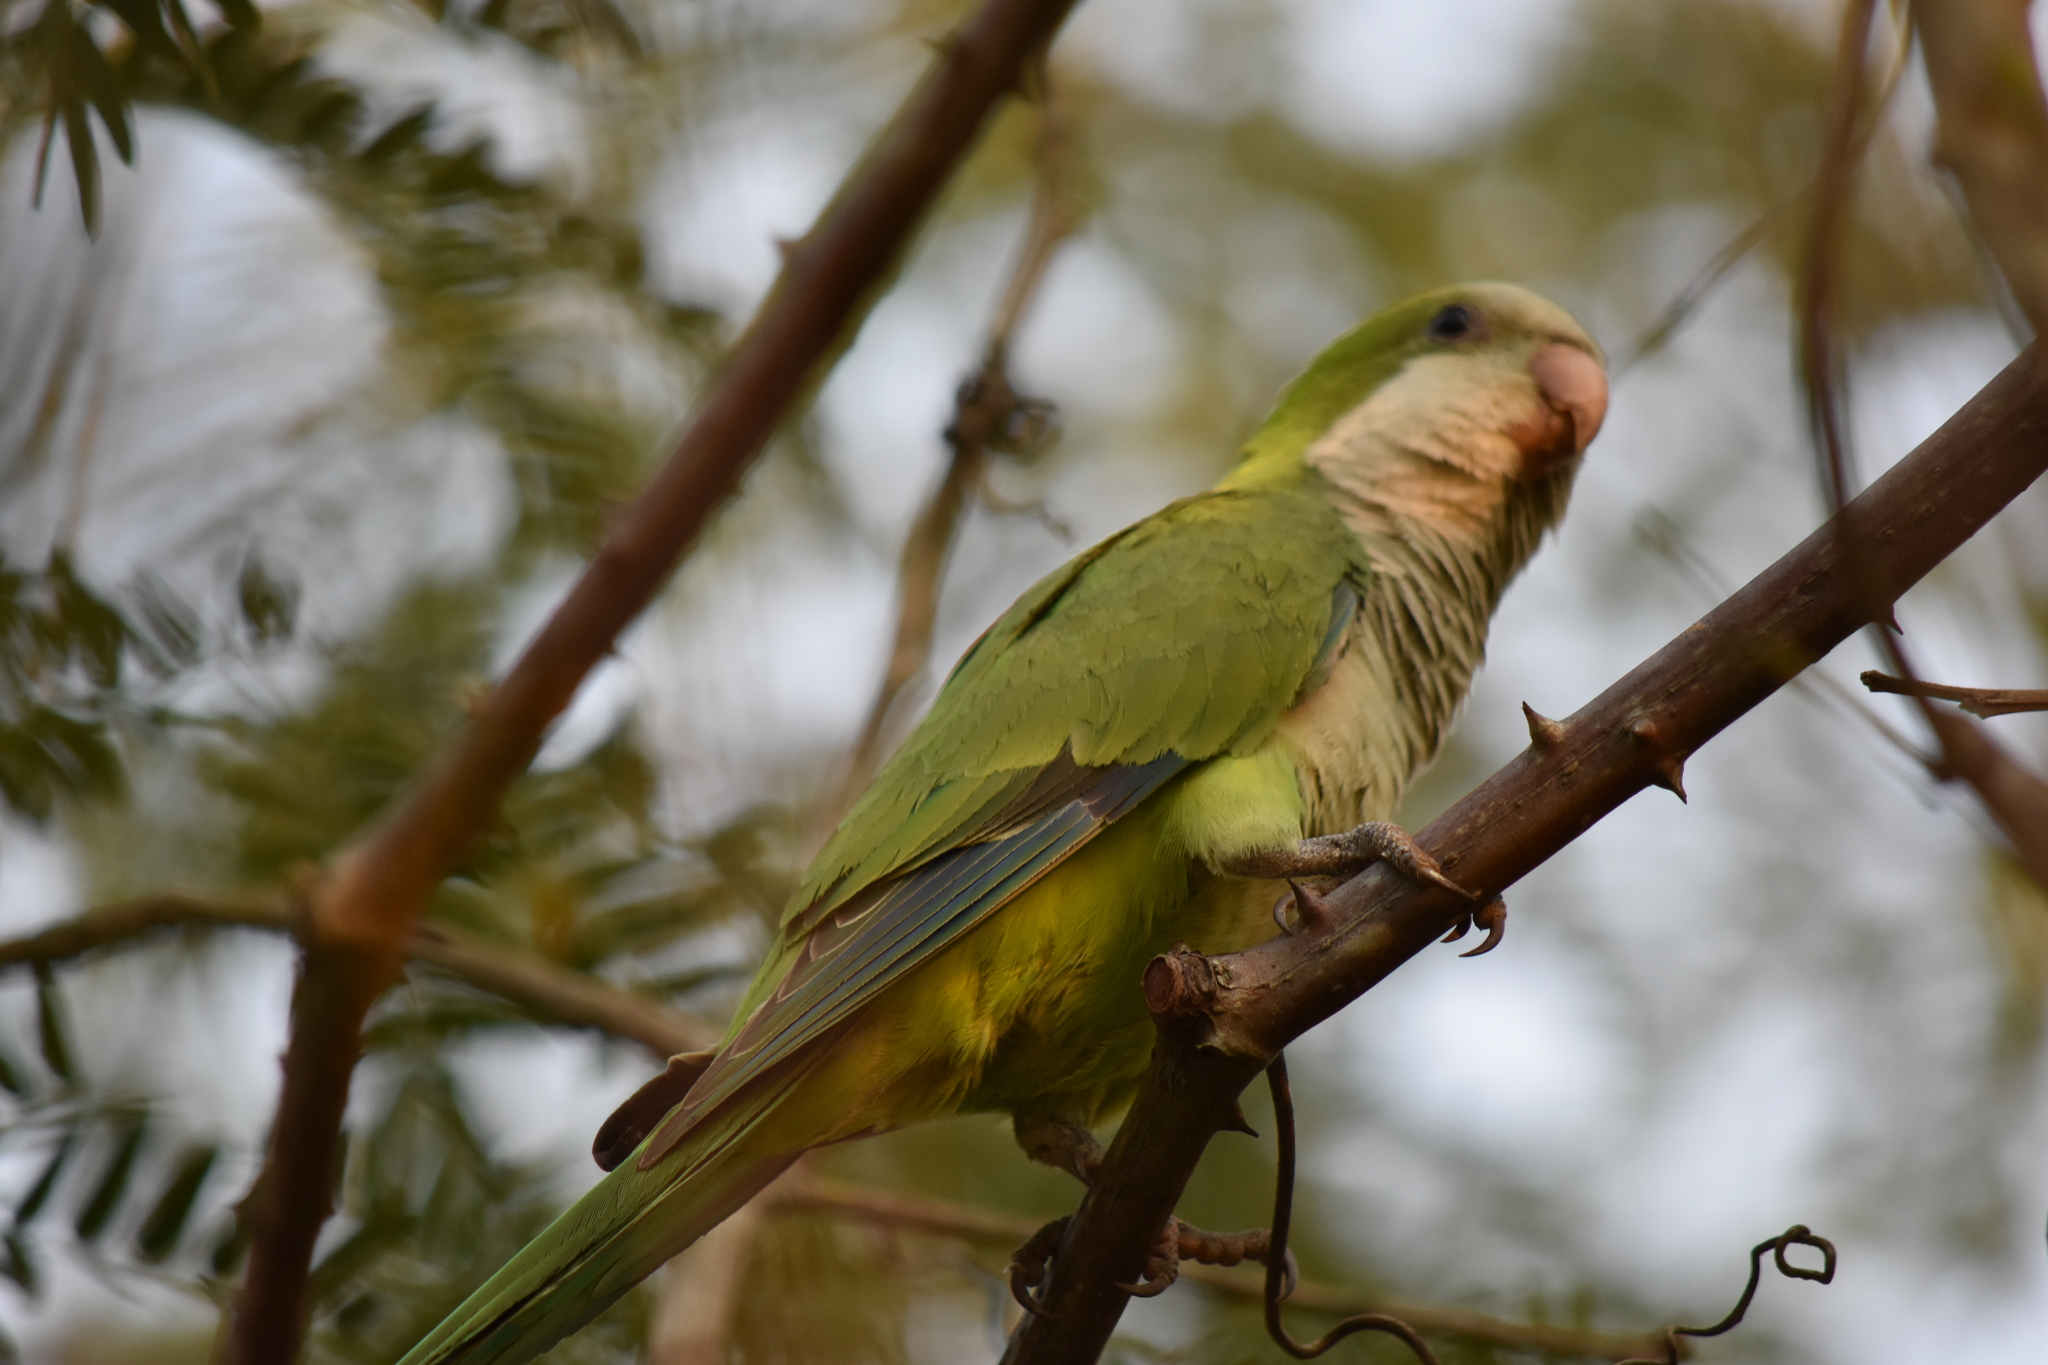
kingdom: Animalia
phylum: Chordata
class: Aves
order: Psittaciformes
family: Psittacidae
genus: Myiopsitta
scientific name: Myiopsitta monachus
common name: Monk parakeet
